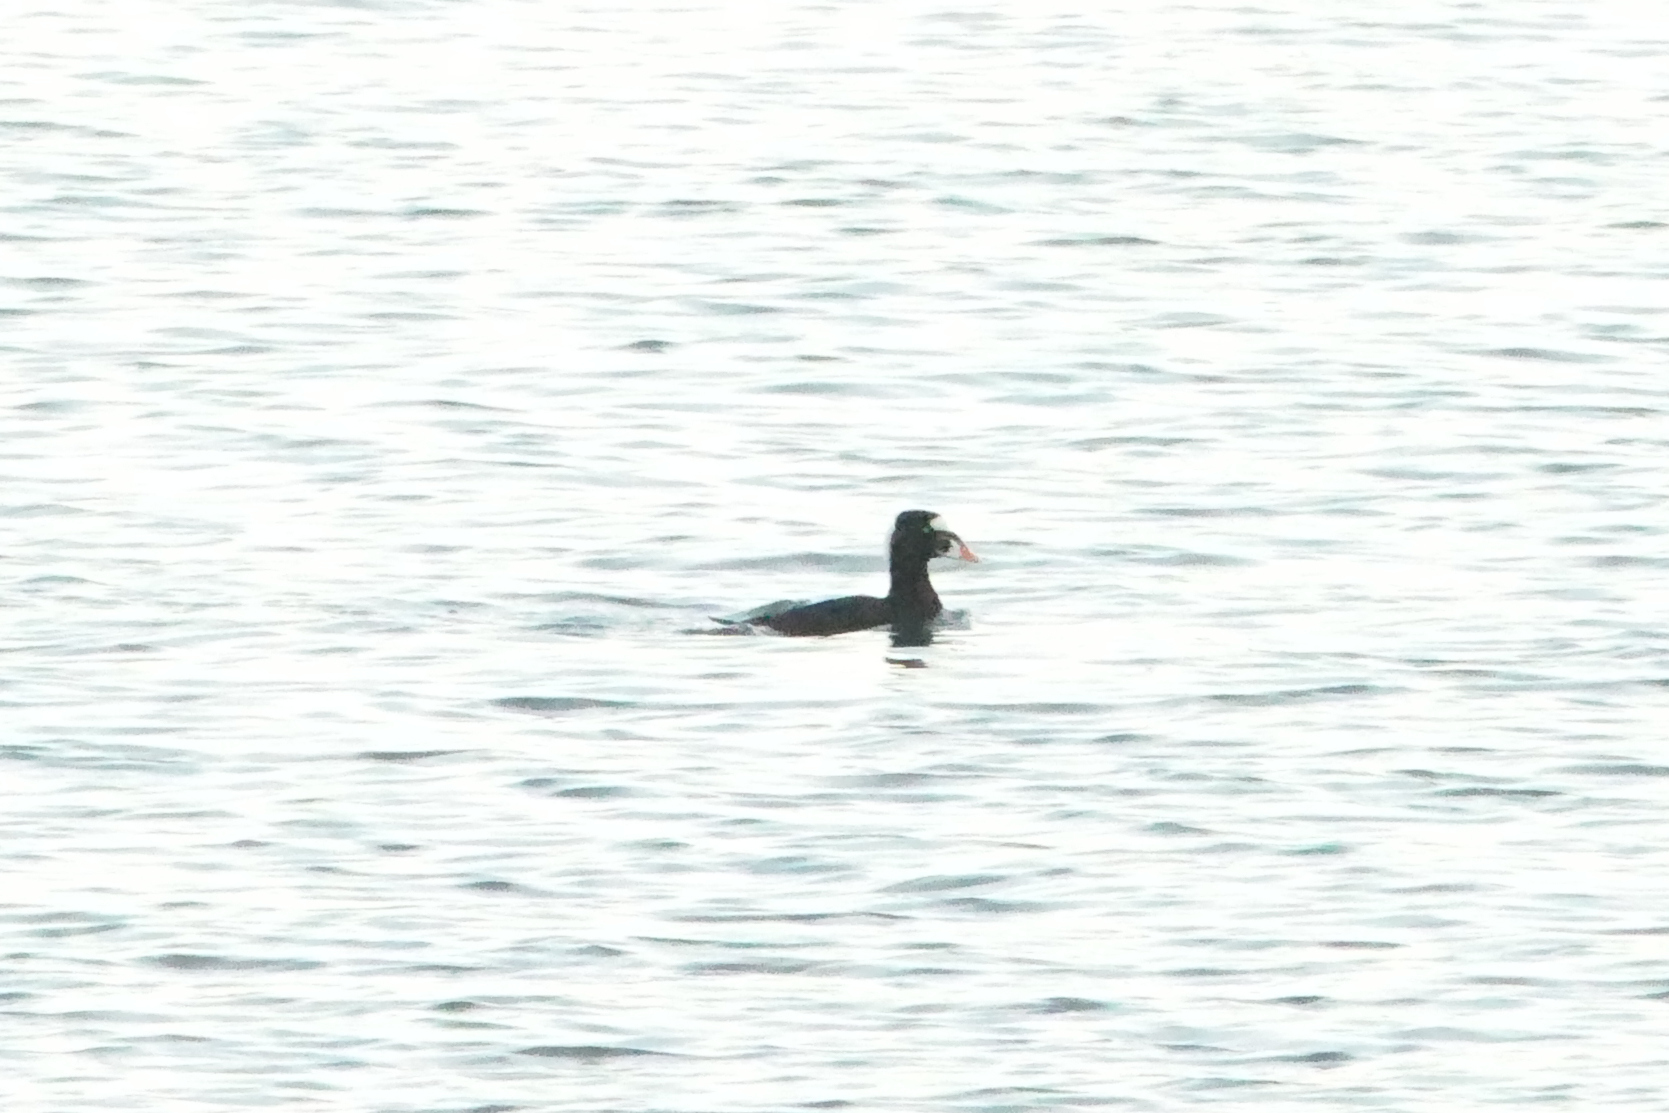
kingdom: Animalia
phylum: Chordata
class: Aves
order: Anseriformes
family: Anatidae
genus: Melanitta
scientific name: Melanitta perspicillata
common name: Surf scoter
